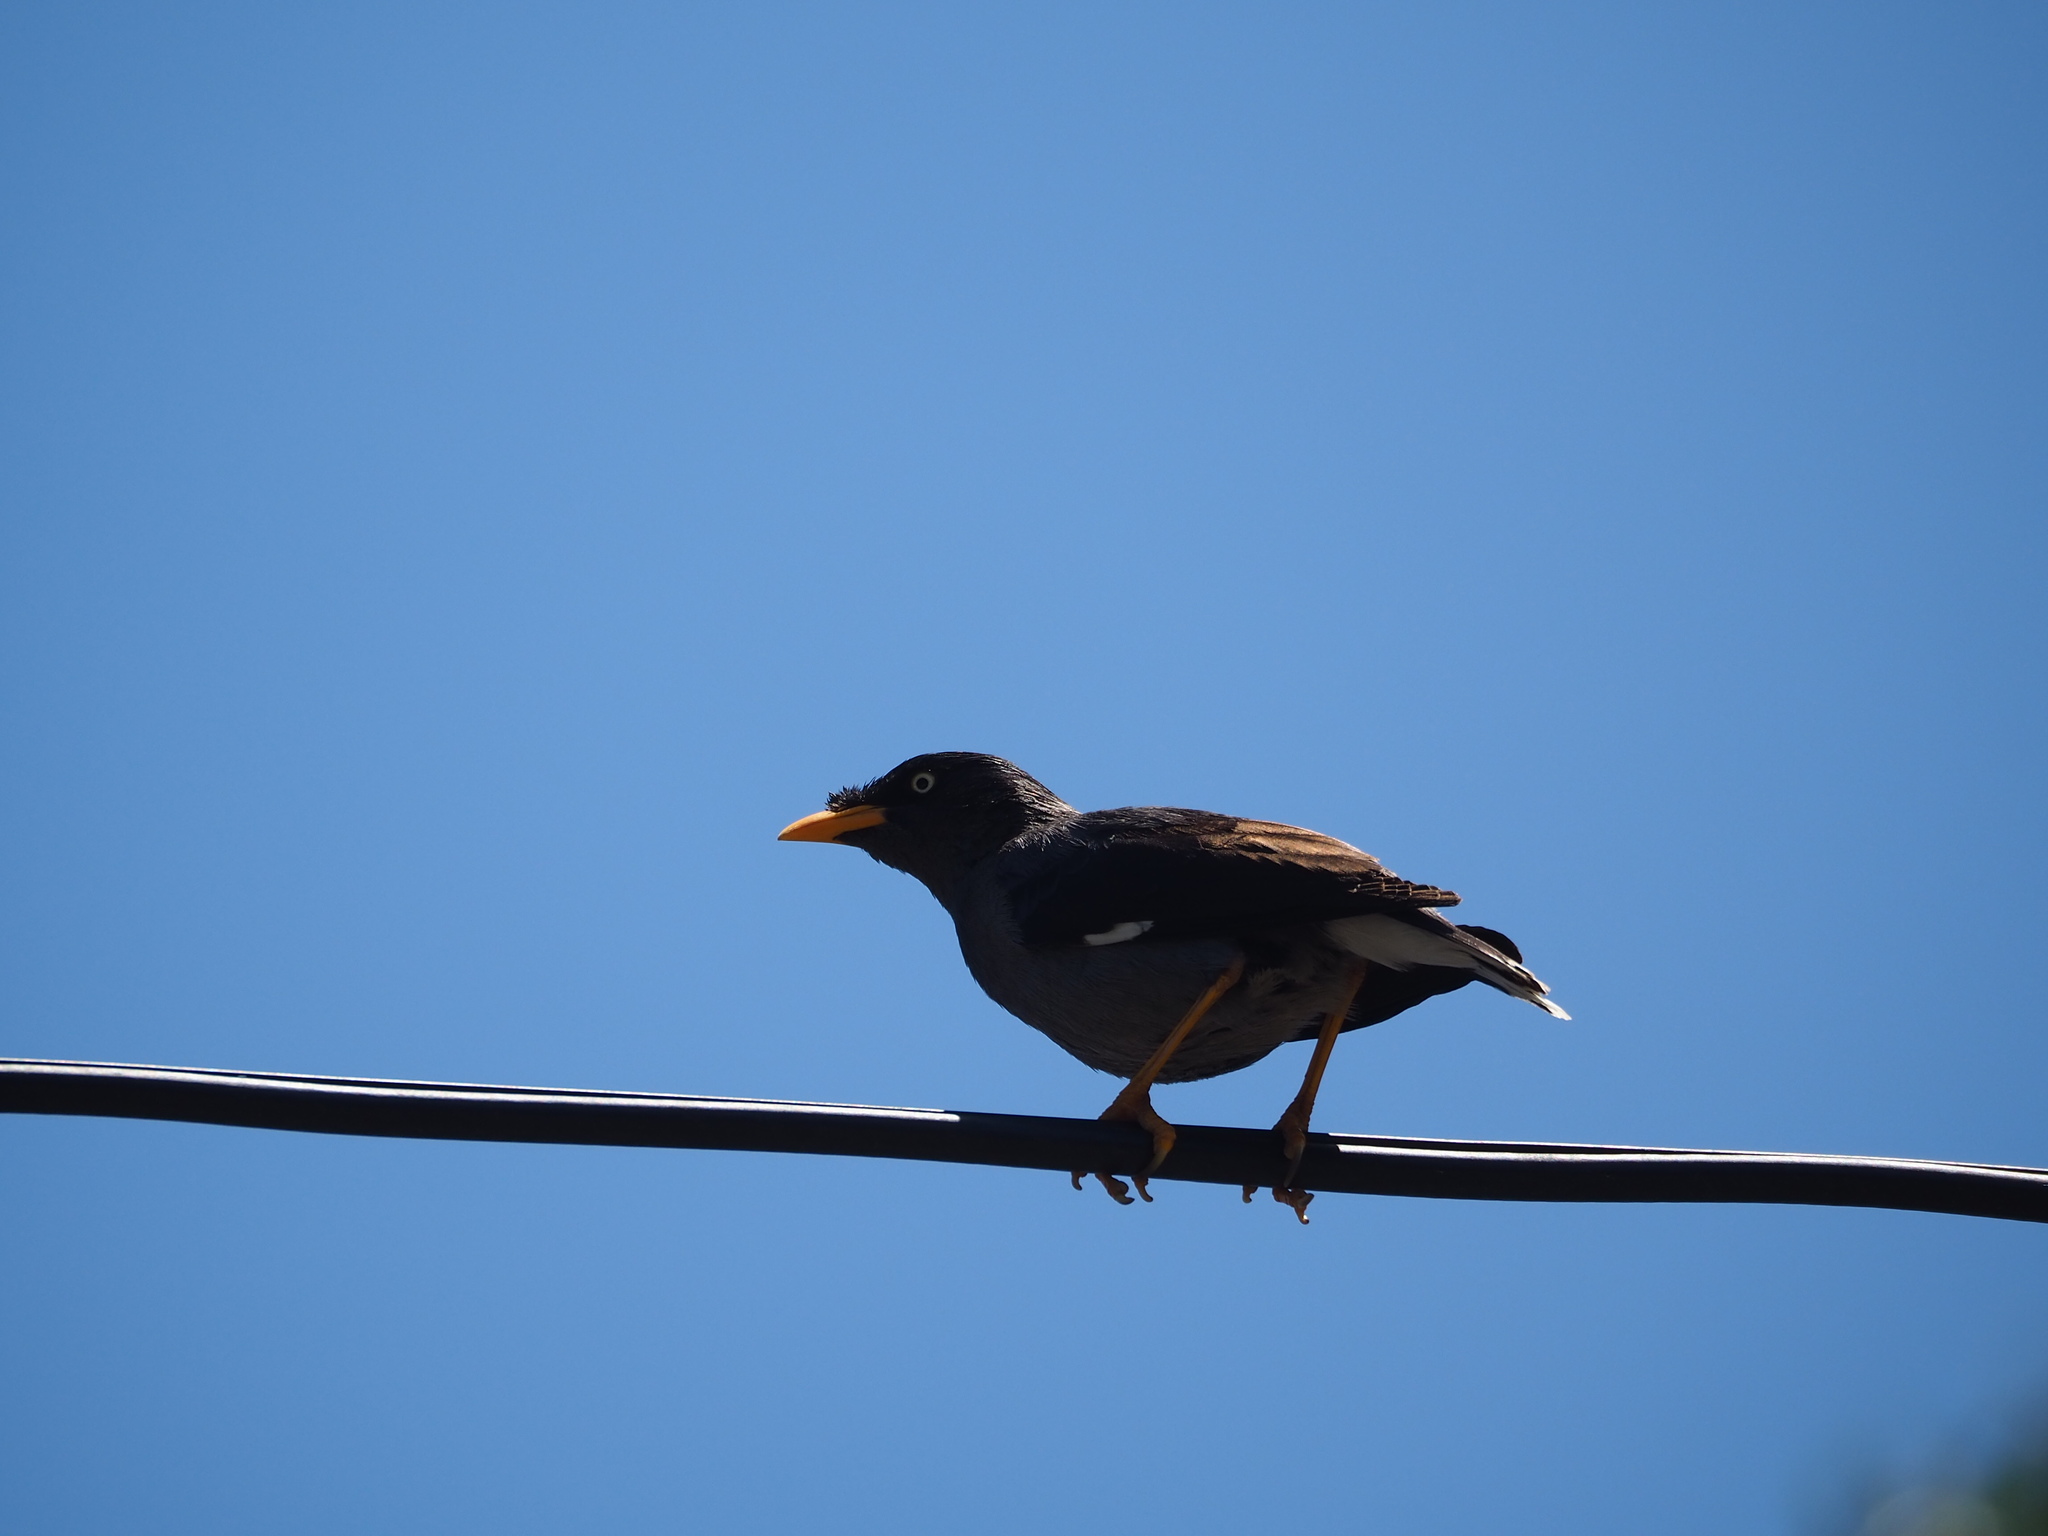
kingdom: Animalia
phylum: Chordata
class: Aves
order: Passeriformes
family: Sturnidae
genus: Acridotheres
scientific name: Acridotheres javanicus
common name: Javan myna
